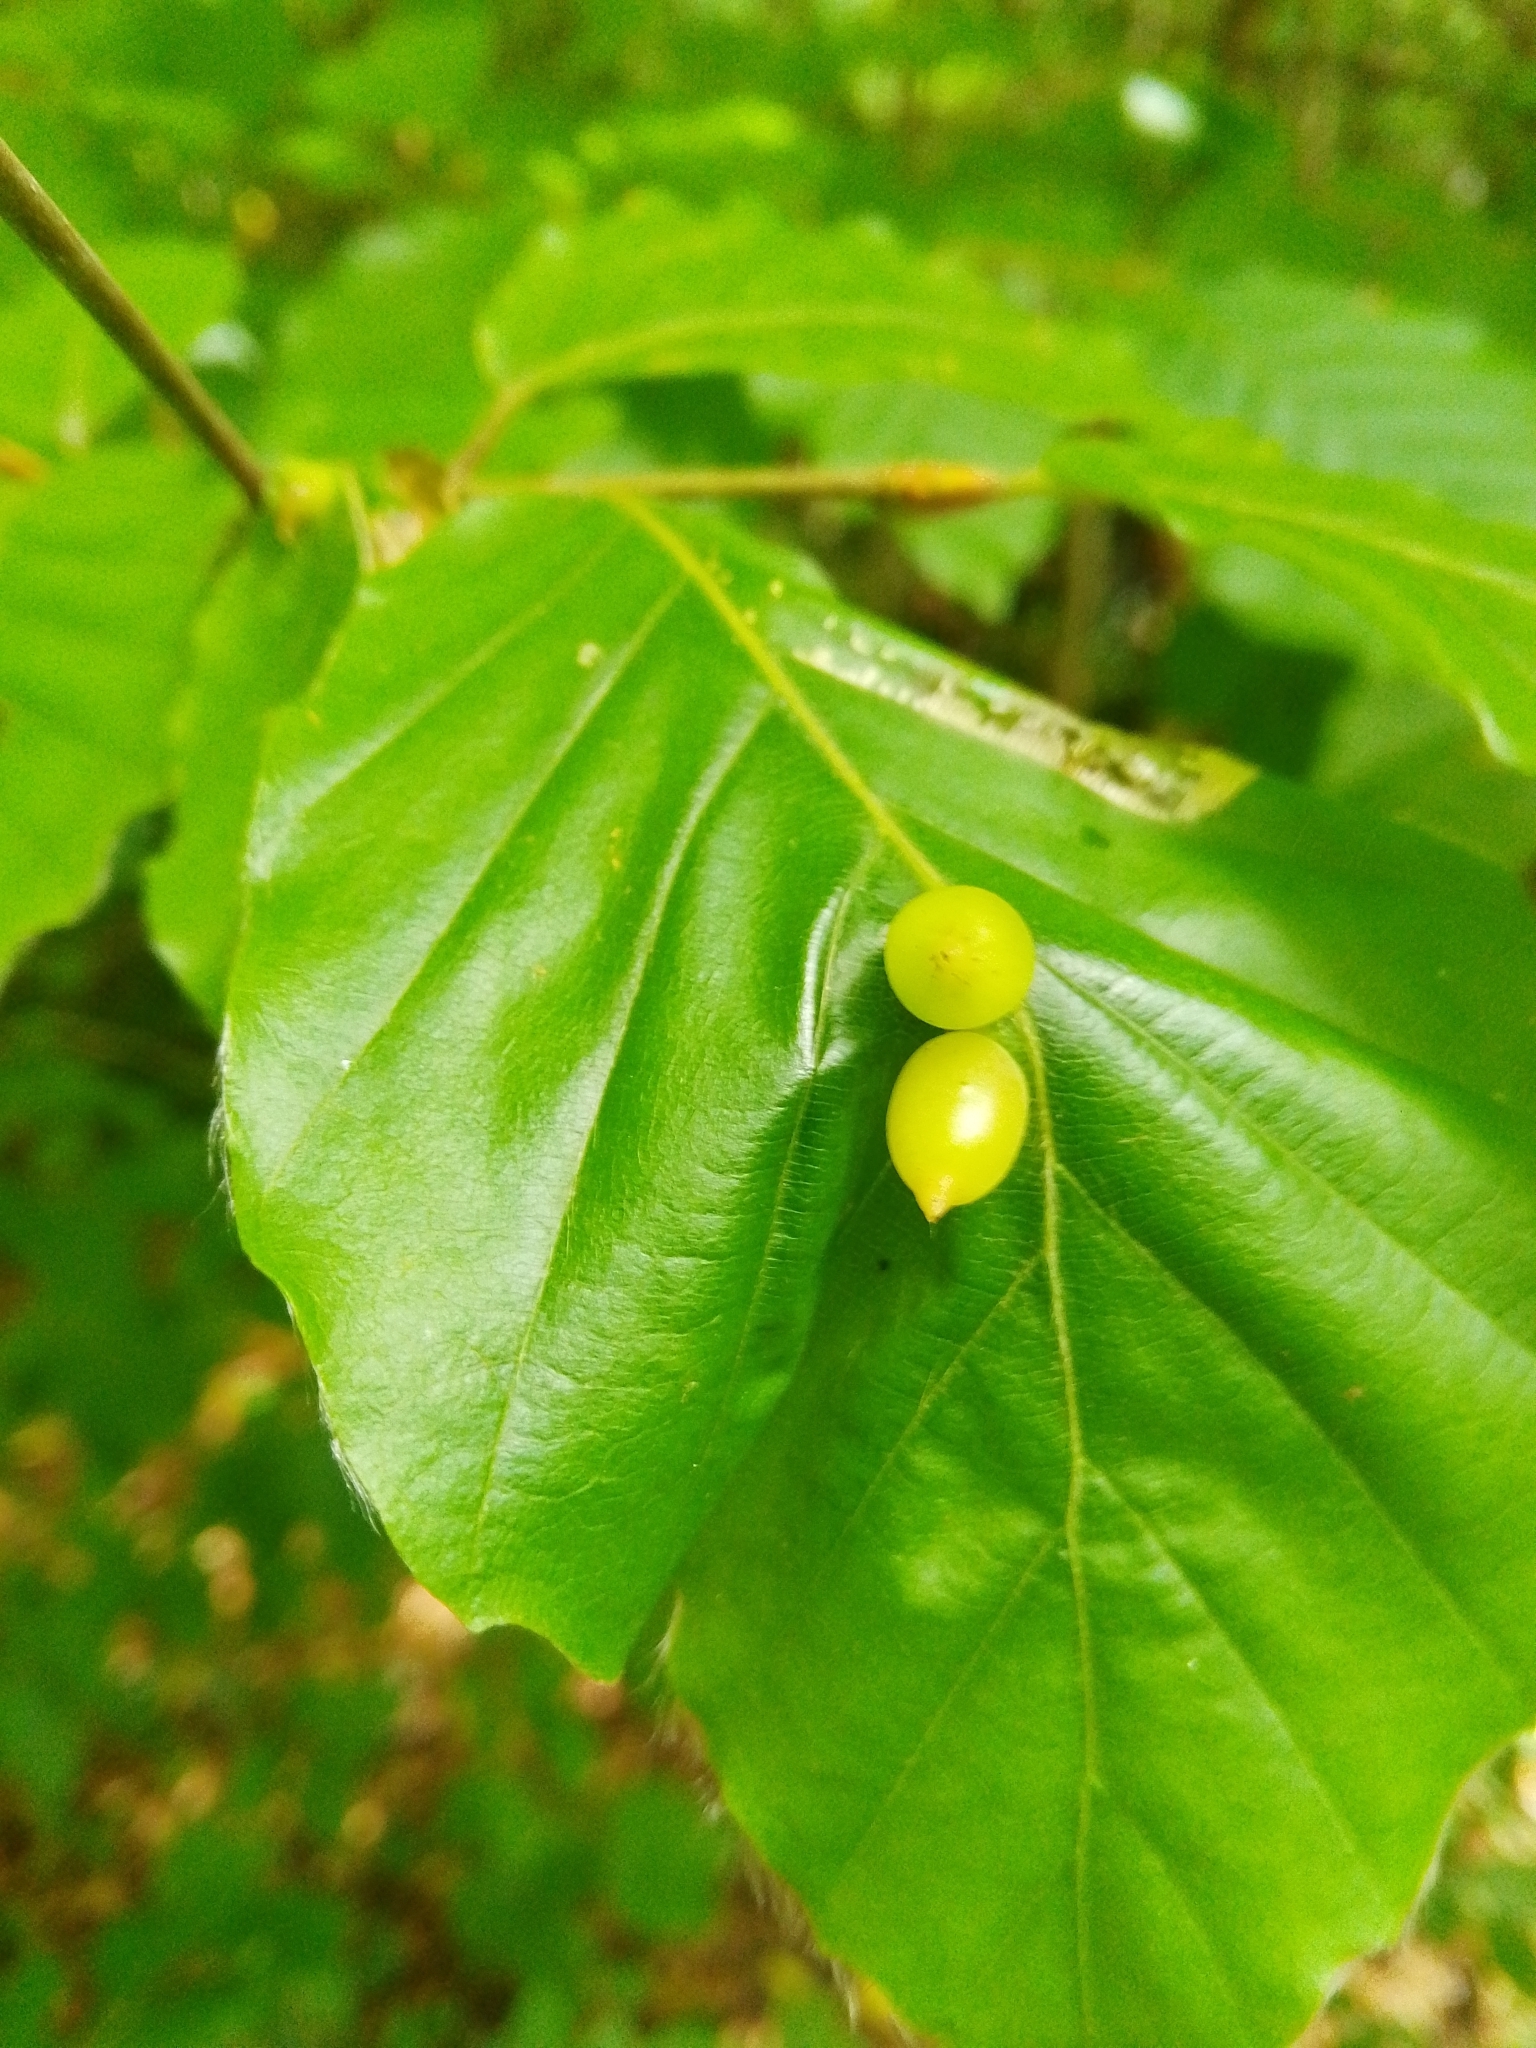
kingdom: Animalia
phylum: Arthropoda
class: Insecta
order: Diptera
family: Cecidomyiidae
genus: Mikiola
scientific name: Mikiola fagi
